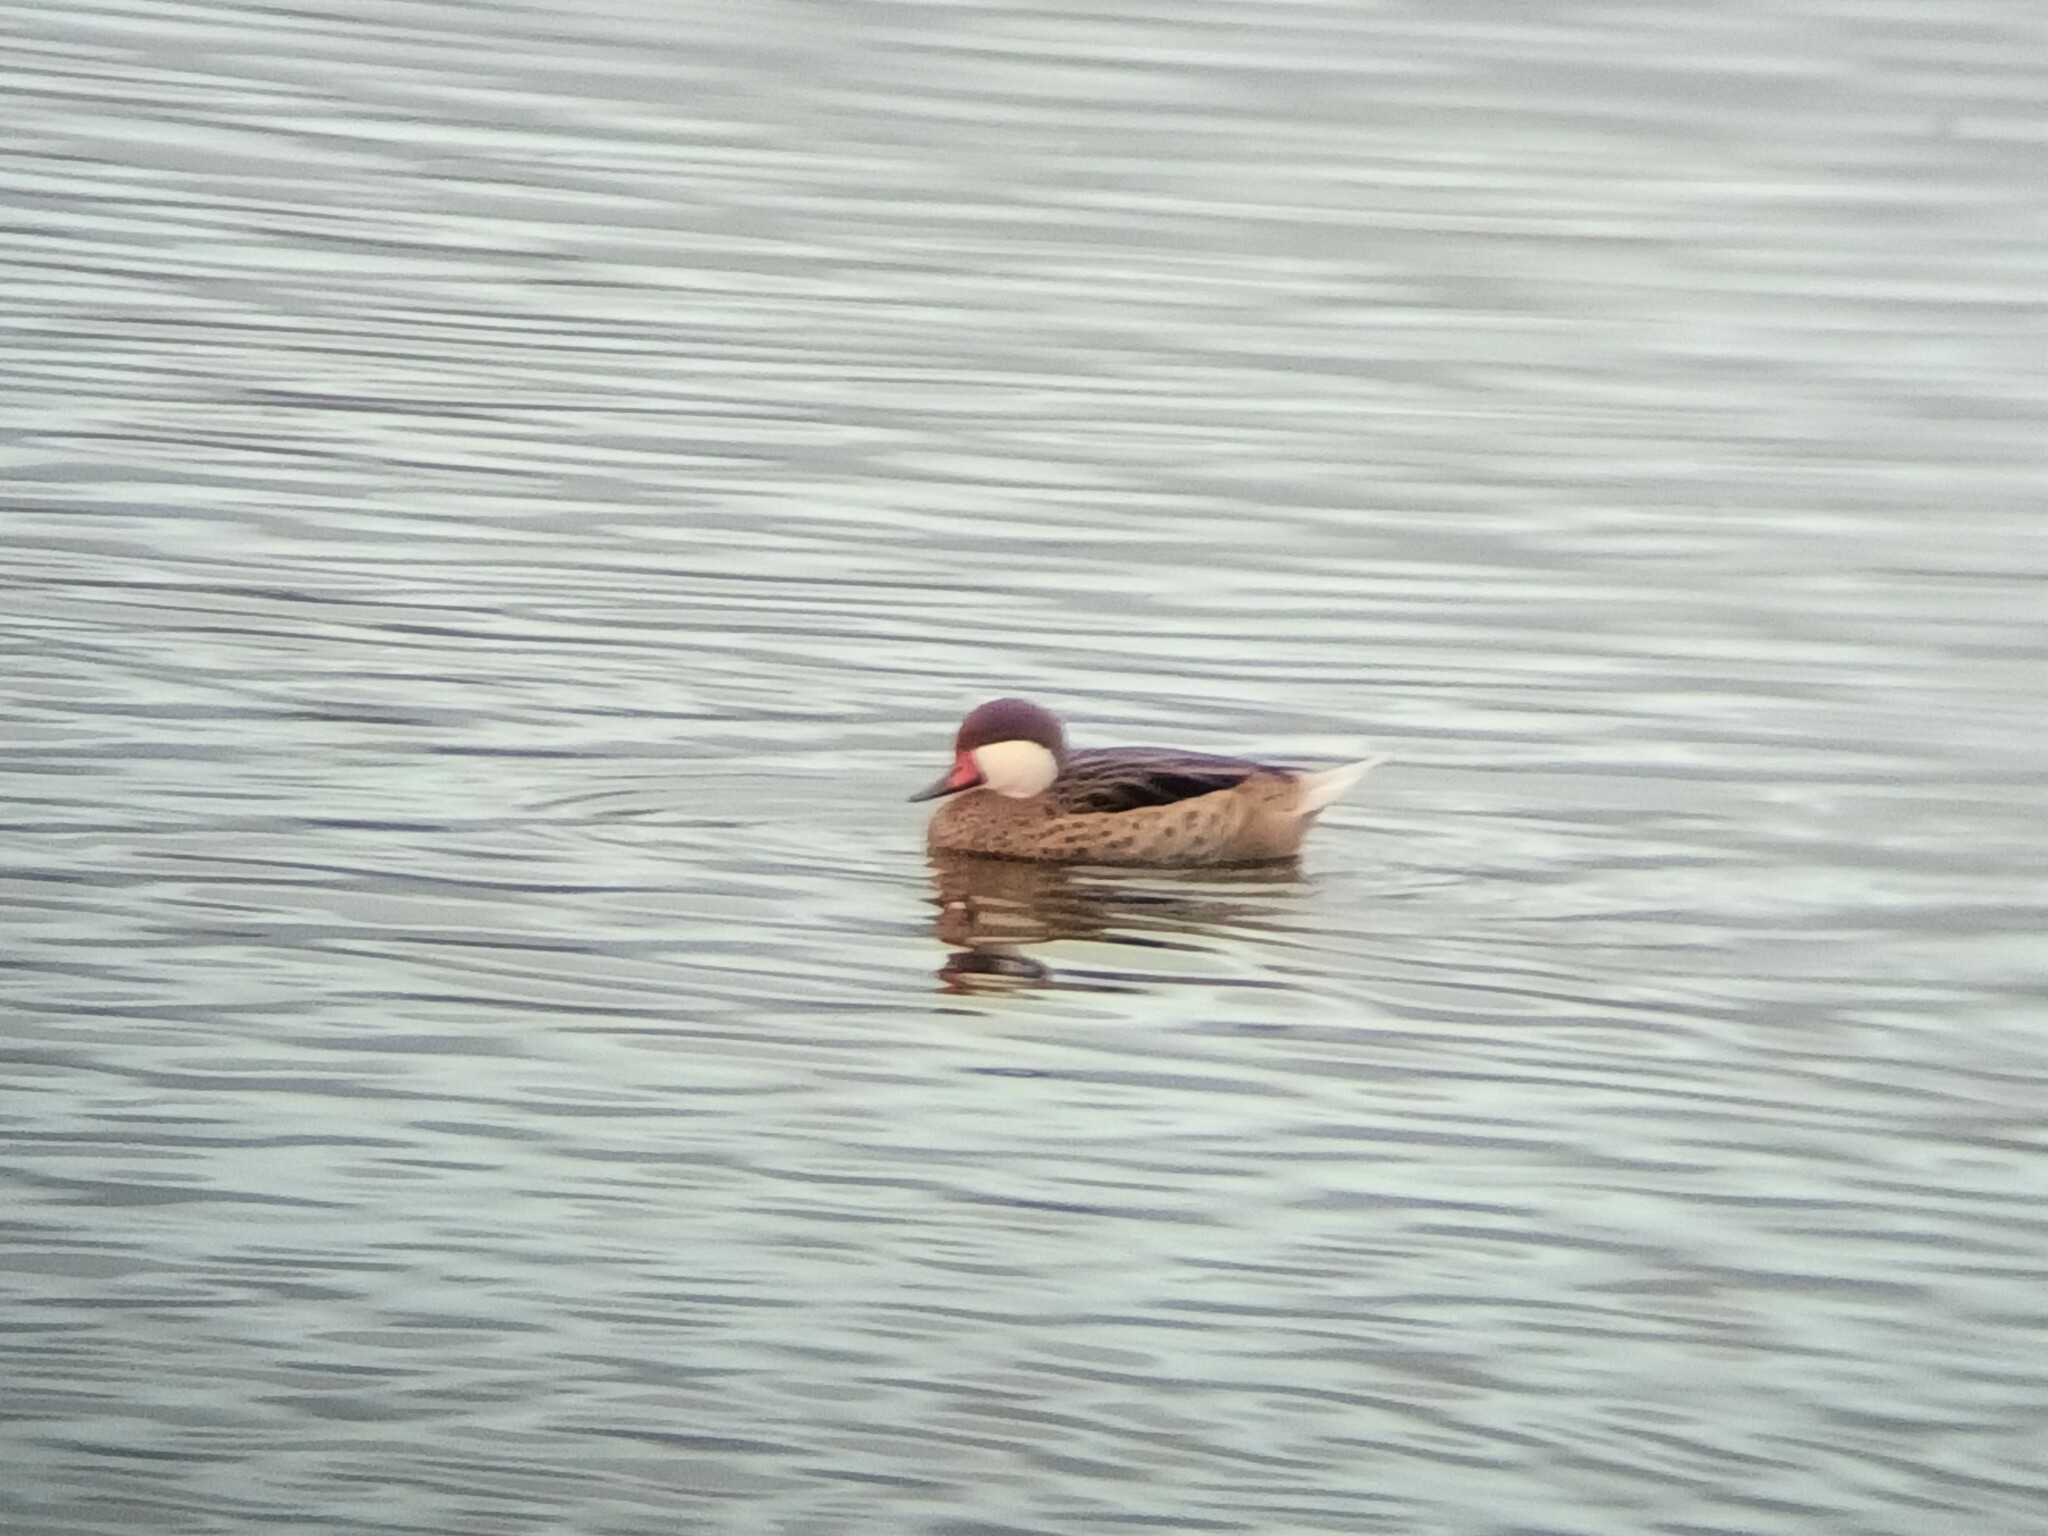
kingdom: Animalia
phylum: Chordata
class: Aves
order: Anseriformes
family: Anatidae
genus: Anas
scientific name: Anas bahamensis
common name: White-cheeked pintail
